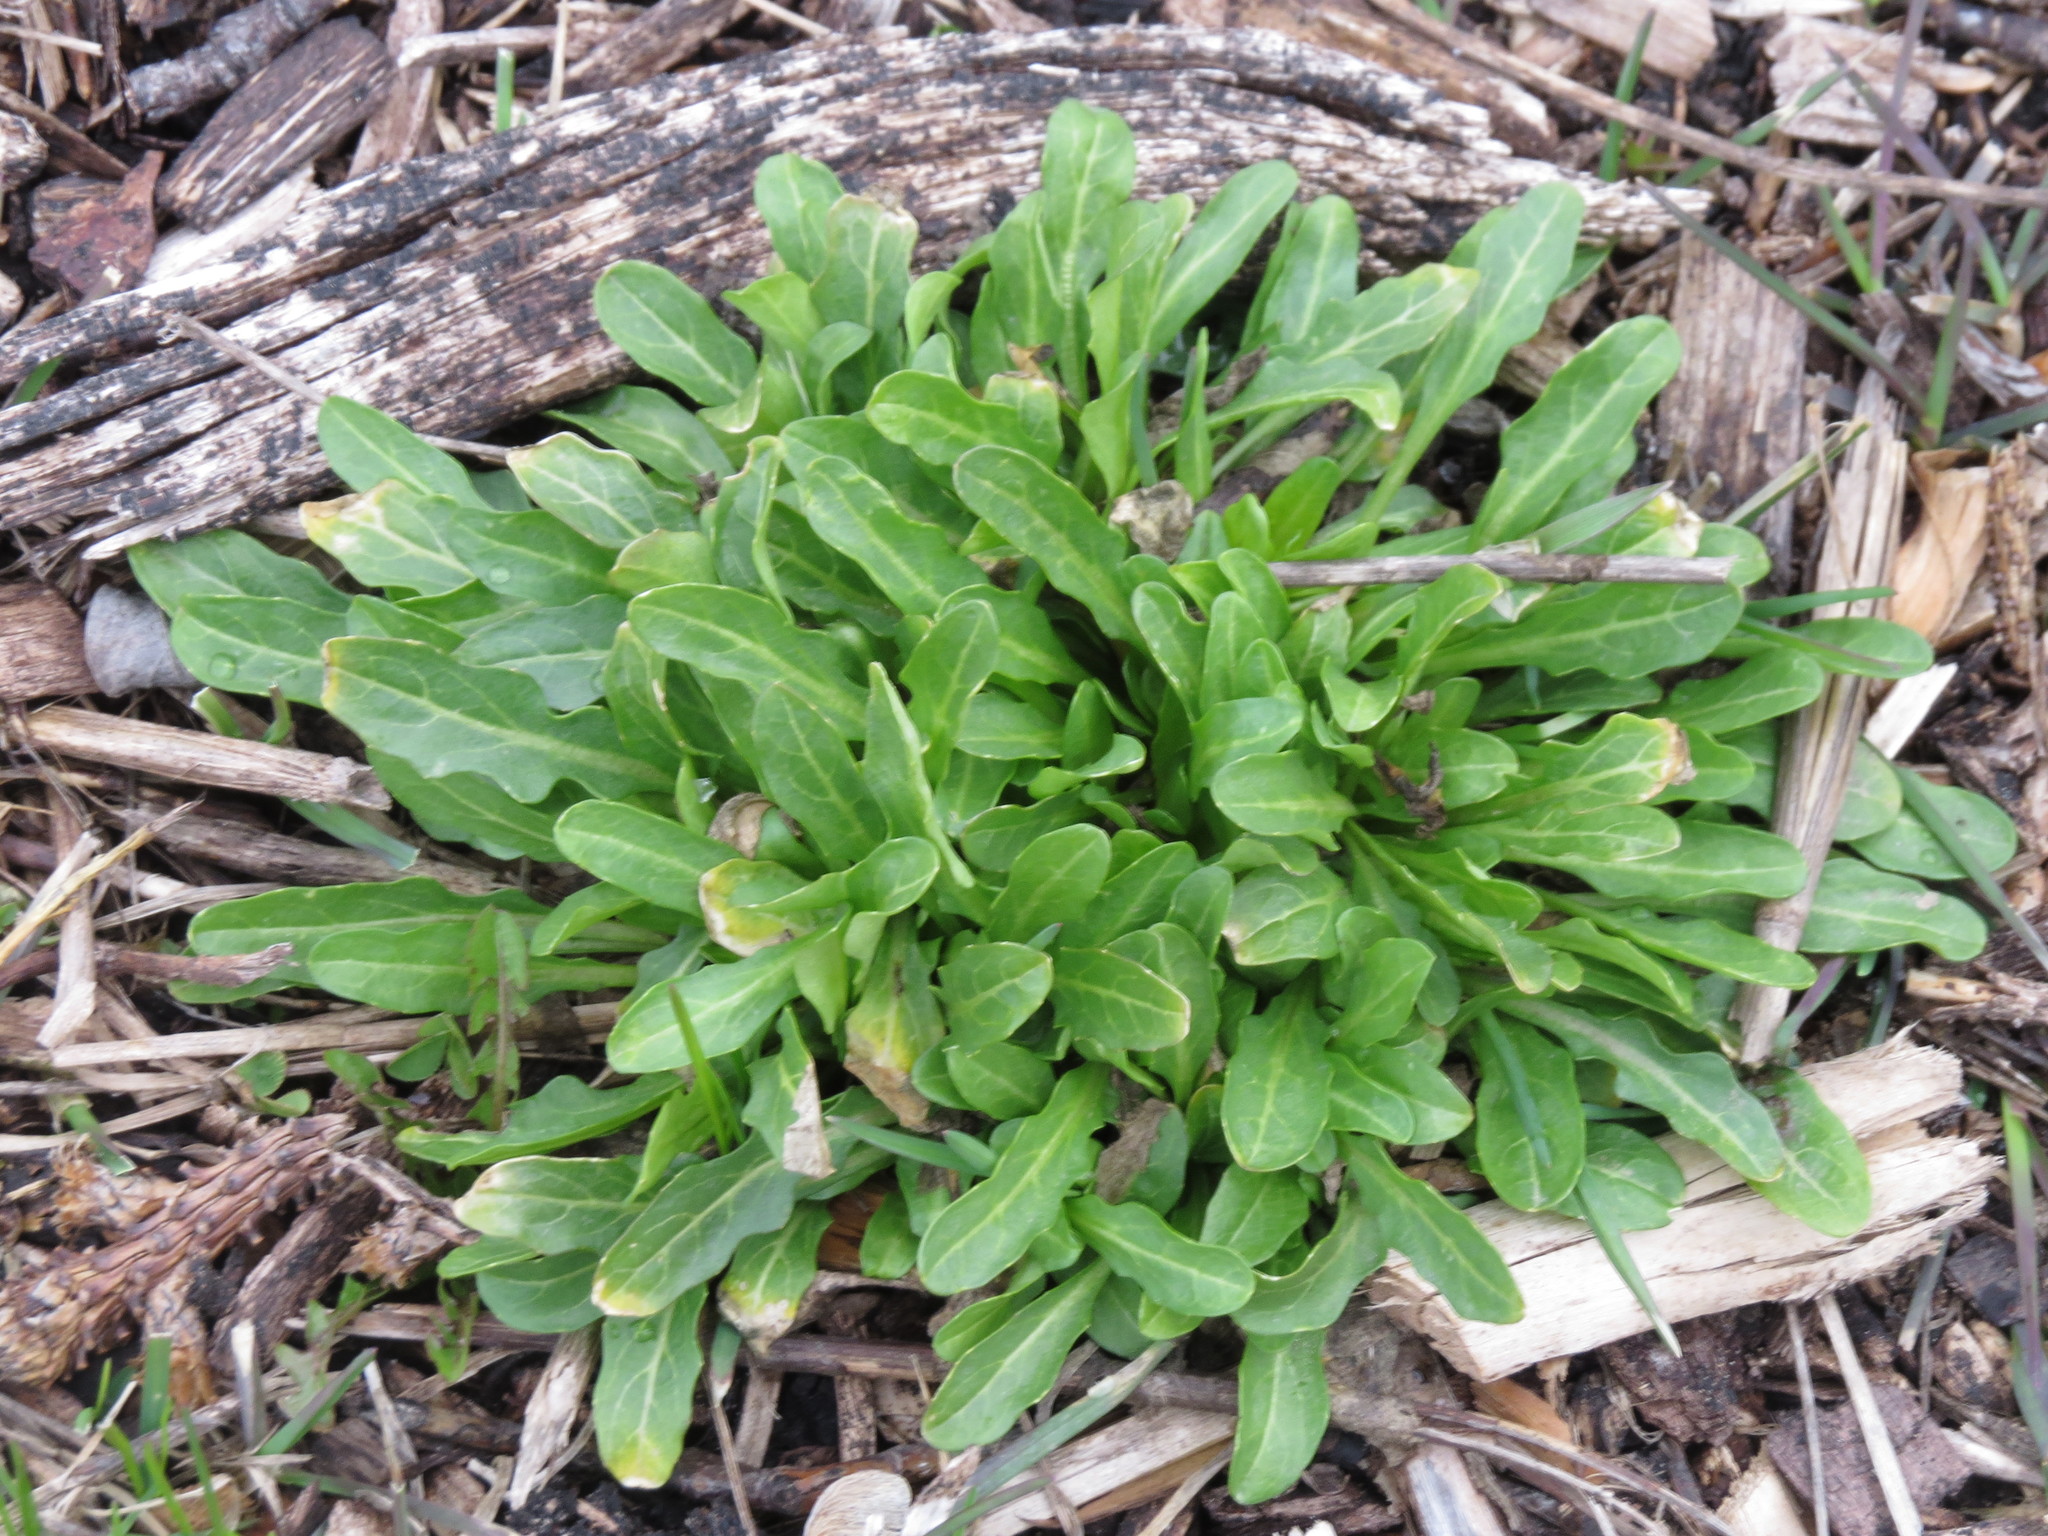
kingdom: Plantae
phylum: Tracheophyta
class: Magnoliopsida
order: Brassicales
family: Brassicaceae
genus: Thlaspi
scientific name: Thlaspi arvense
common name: Field pennycress
